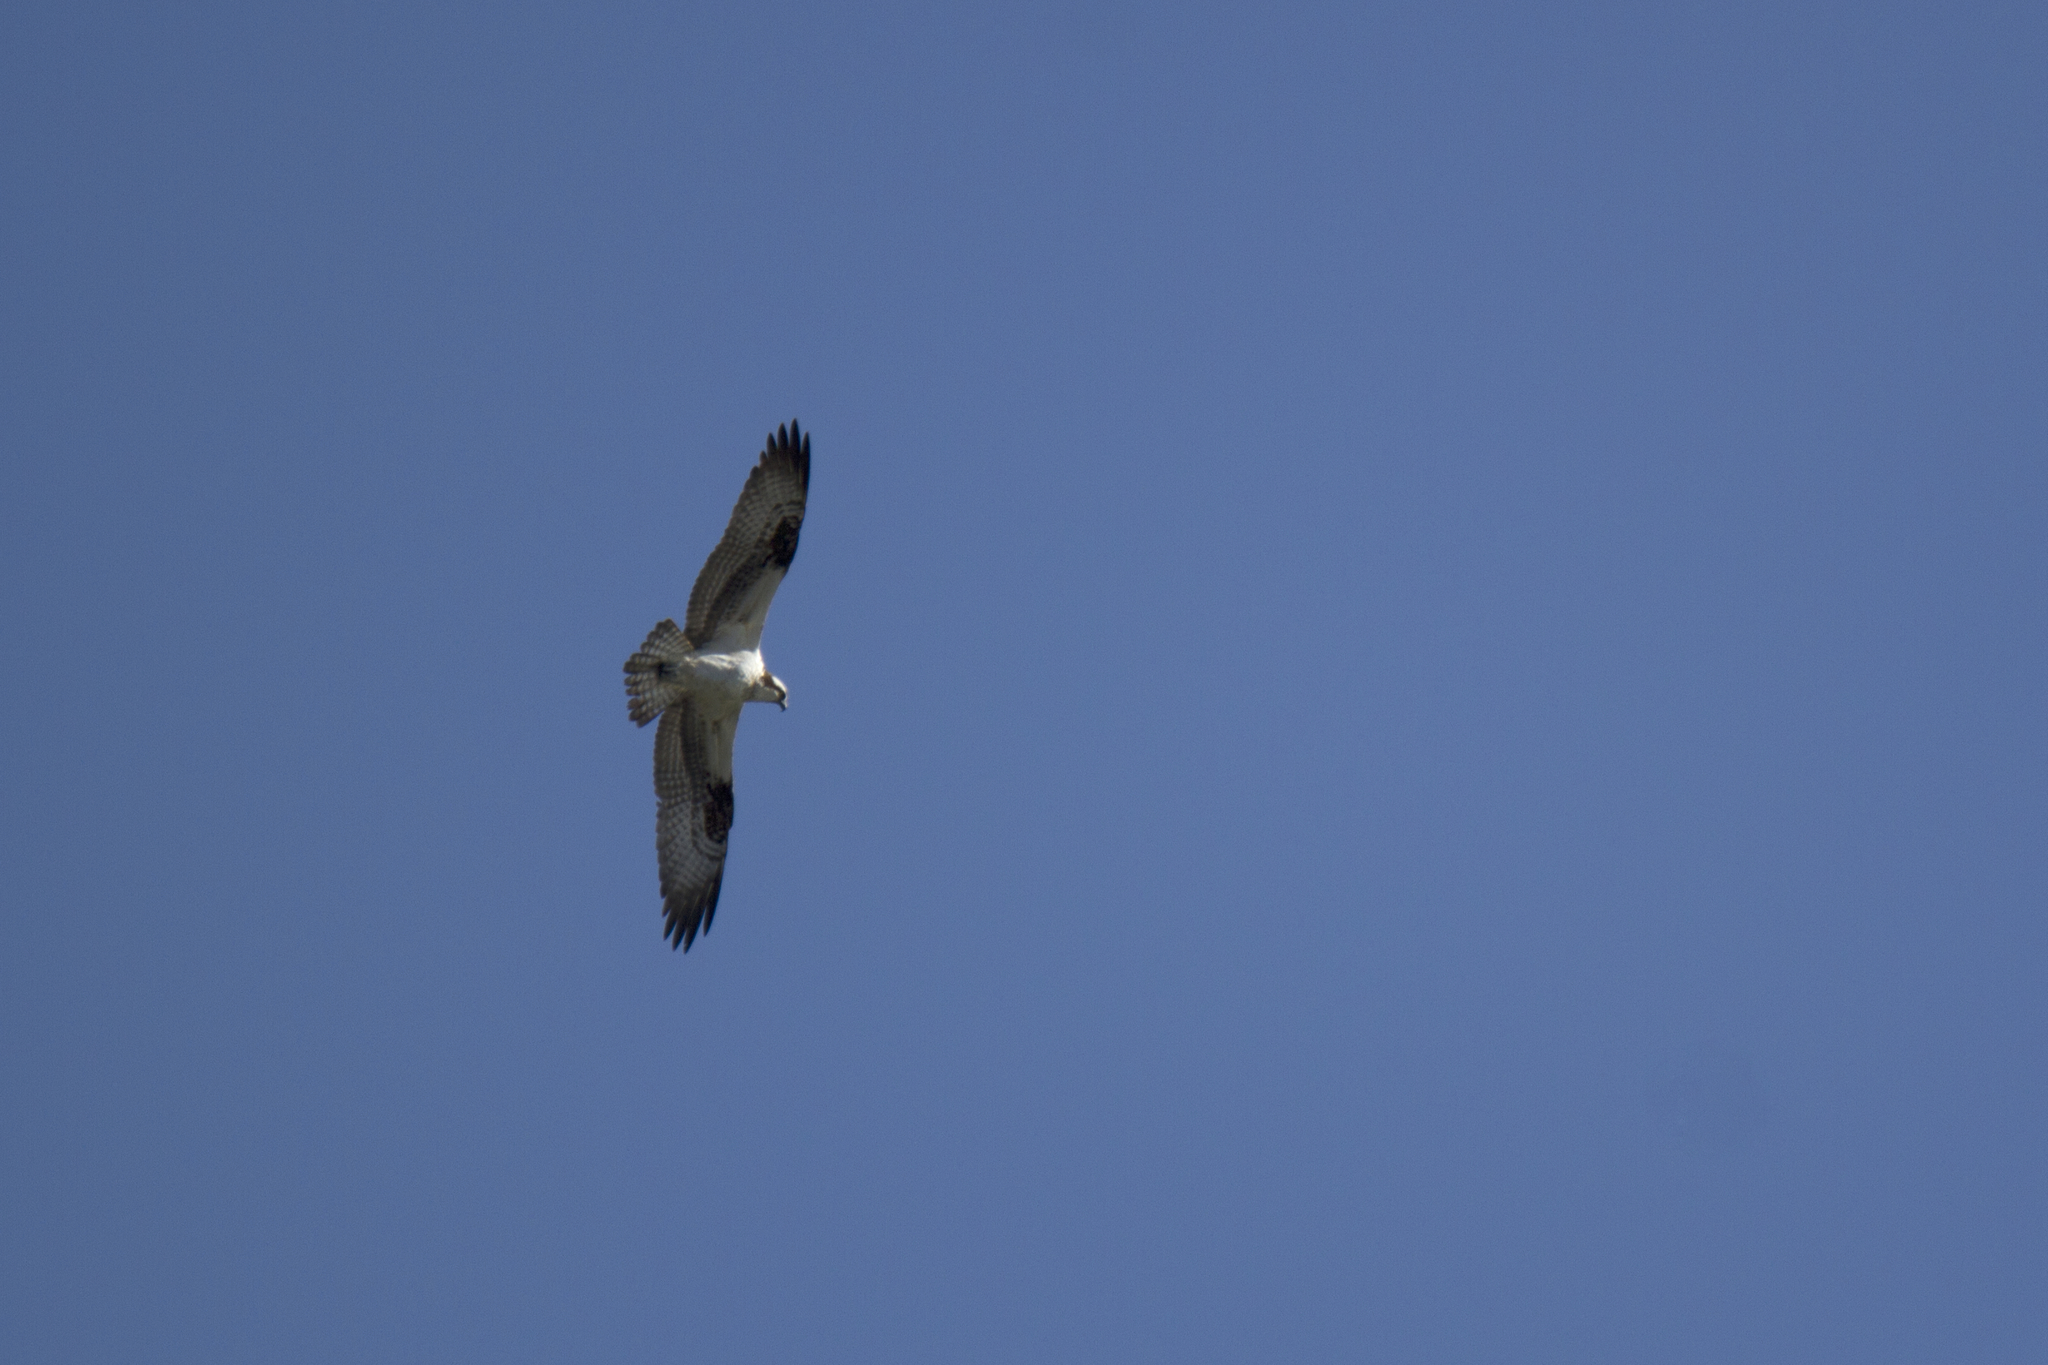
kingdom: Animalia
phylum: Chordata
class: Aves
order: Accipitriformes
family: Pandionidae
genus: Pandion
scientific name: Pandion haliaetus
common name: Osprey
